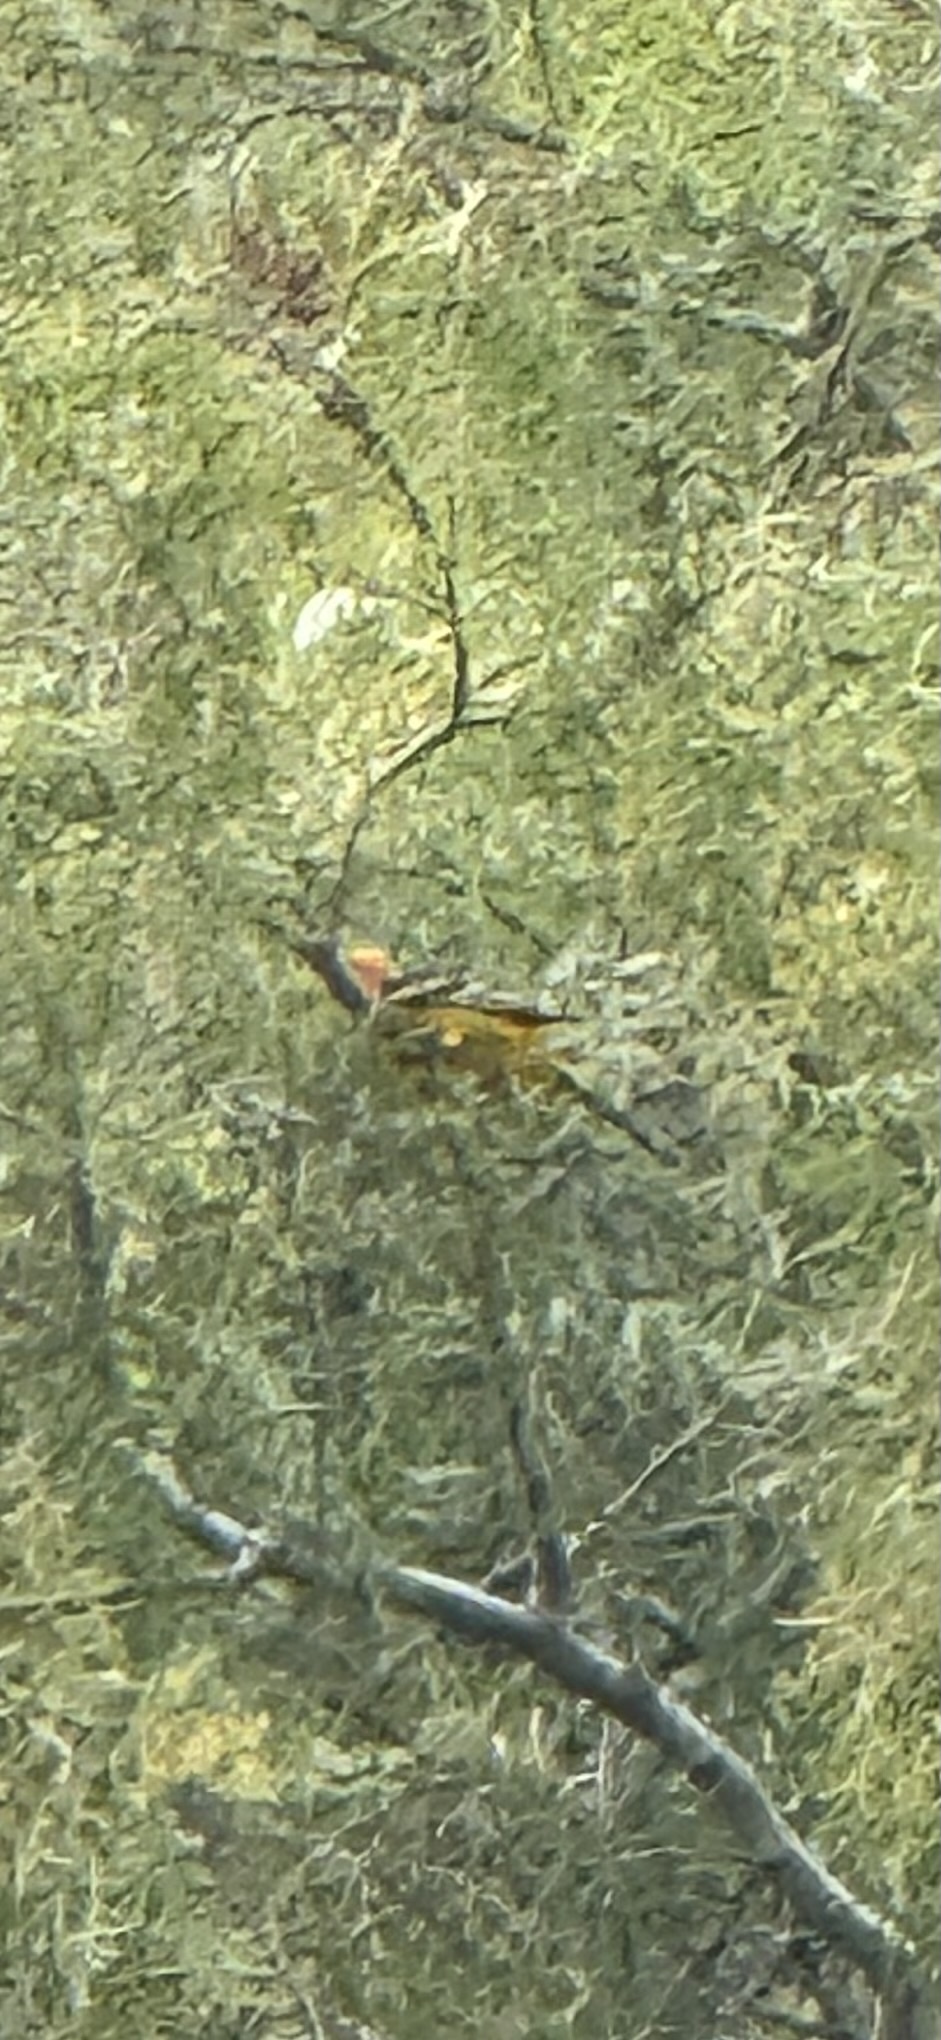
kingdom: Animalia
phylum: Chordata
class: Aves
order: Passeriformes
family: Icteridae
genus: Icterus
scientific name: Icterus cucullatus
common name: Hooded oriole
